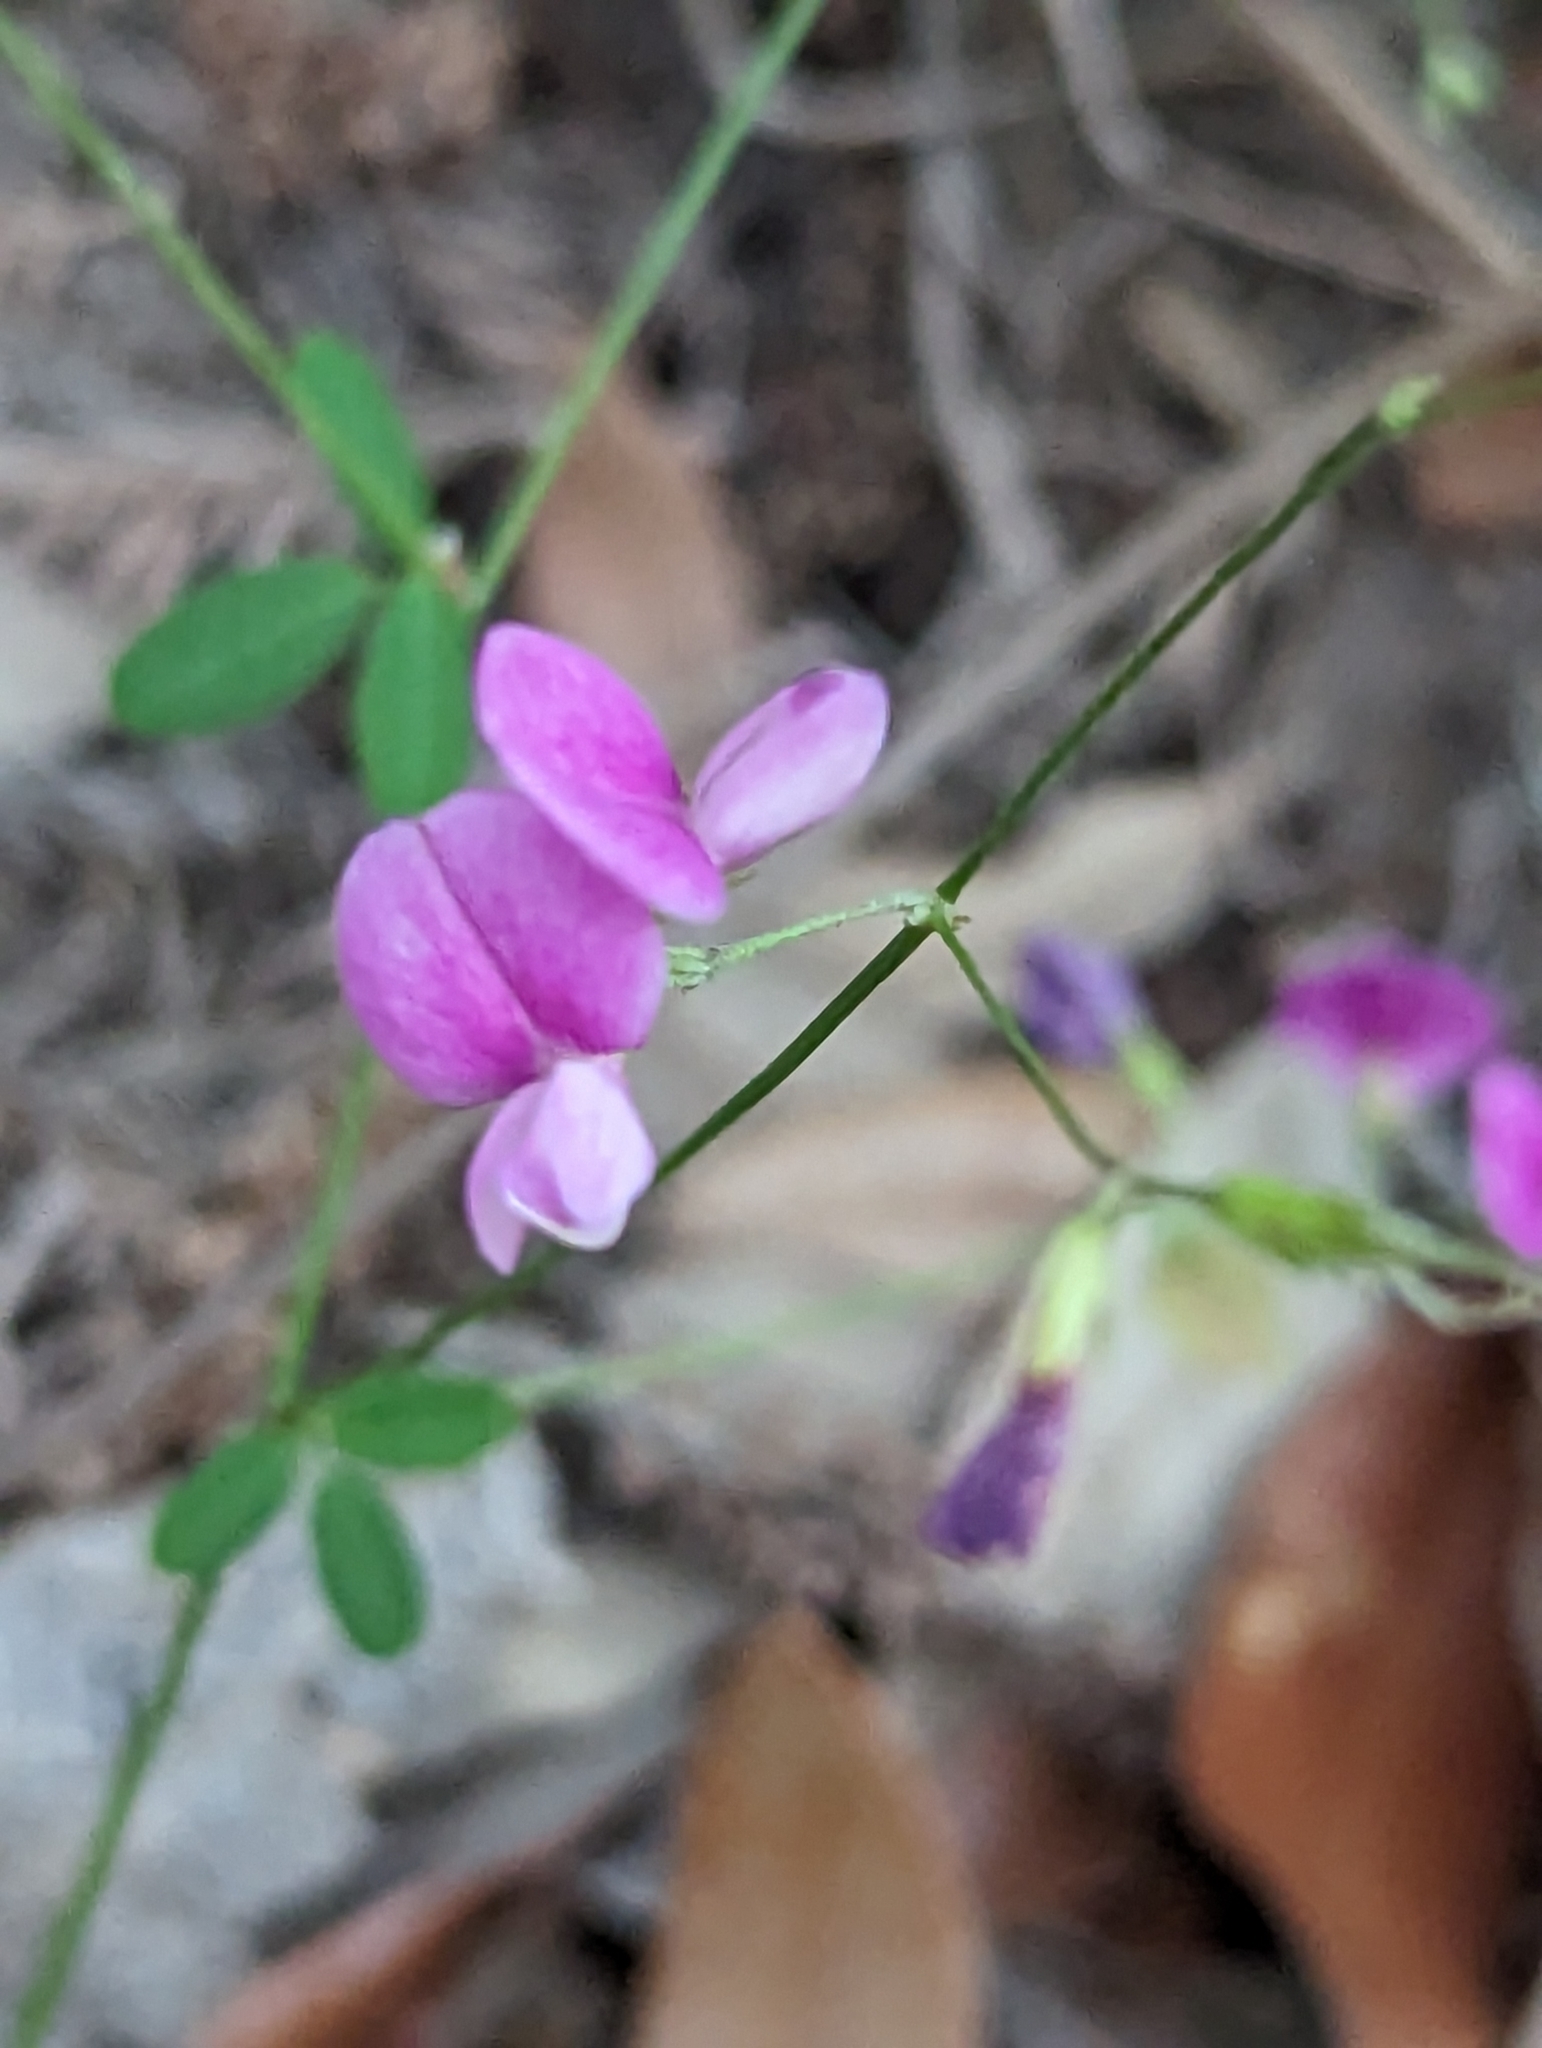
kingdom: Plantae
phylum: Tracheophyta
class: Magnoliopsida
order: Fabales
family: Fabaceae
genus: Lespedeza
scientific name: Lespedeza texana
